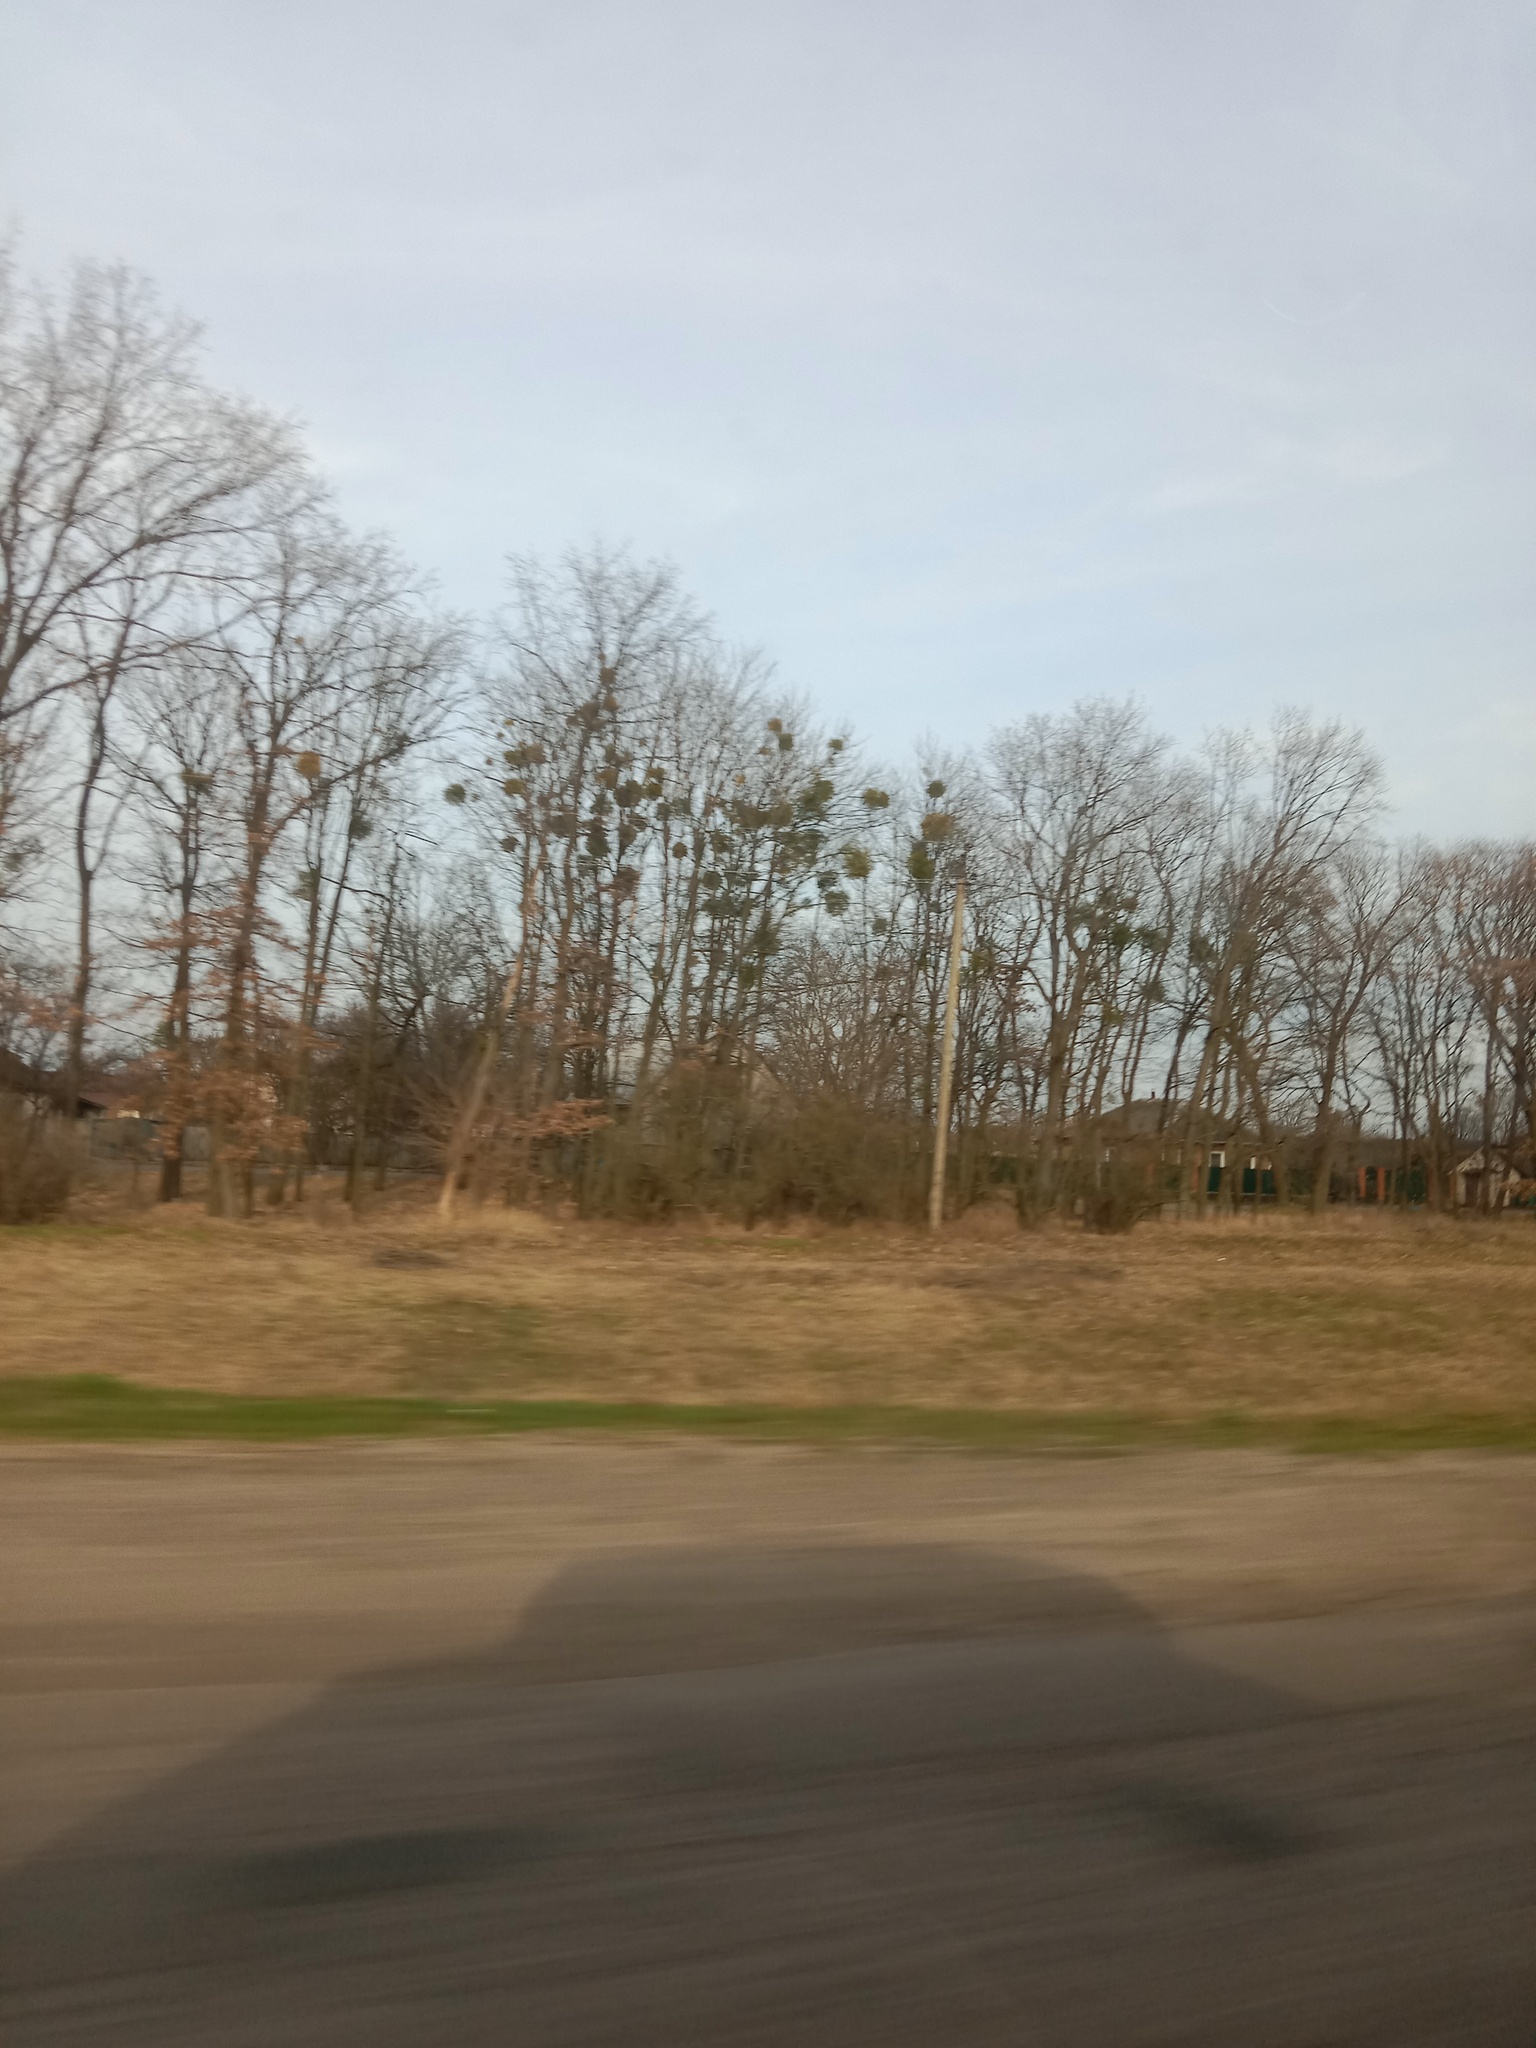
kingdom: Plantae
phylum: Tracheophyta
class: Magnoliopsida
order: Santalales
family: Viscaceae
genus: Viscum
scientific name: Viscum album
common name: Mistletoe
